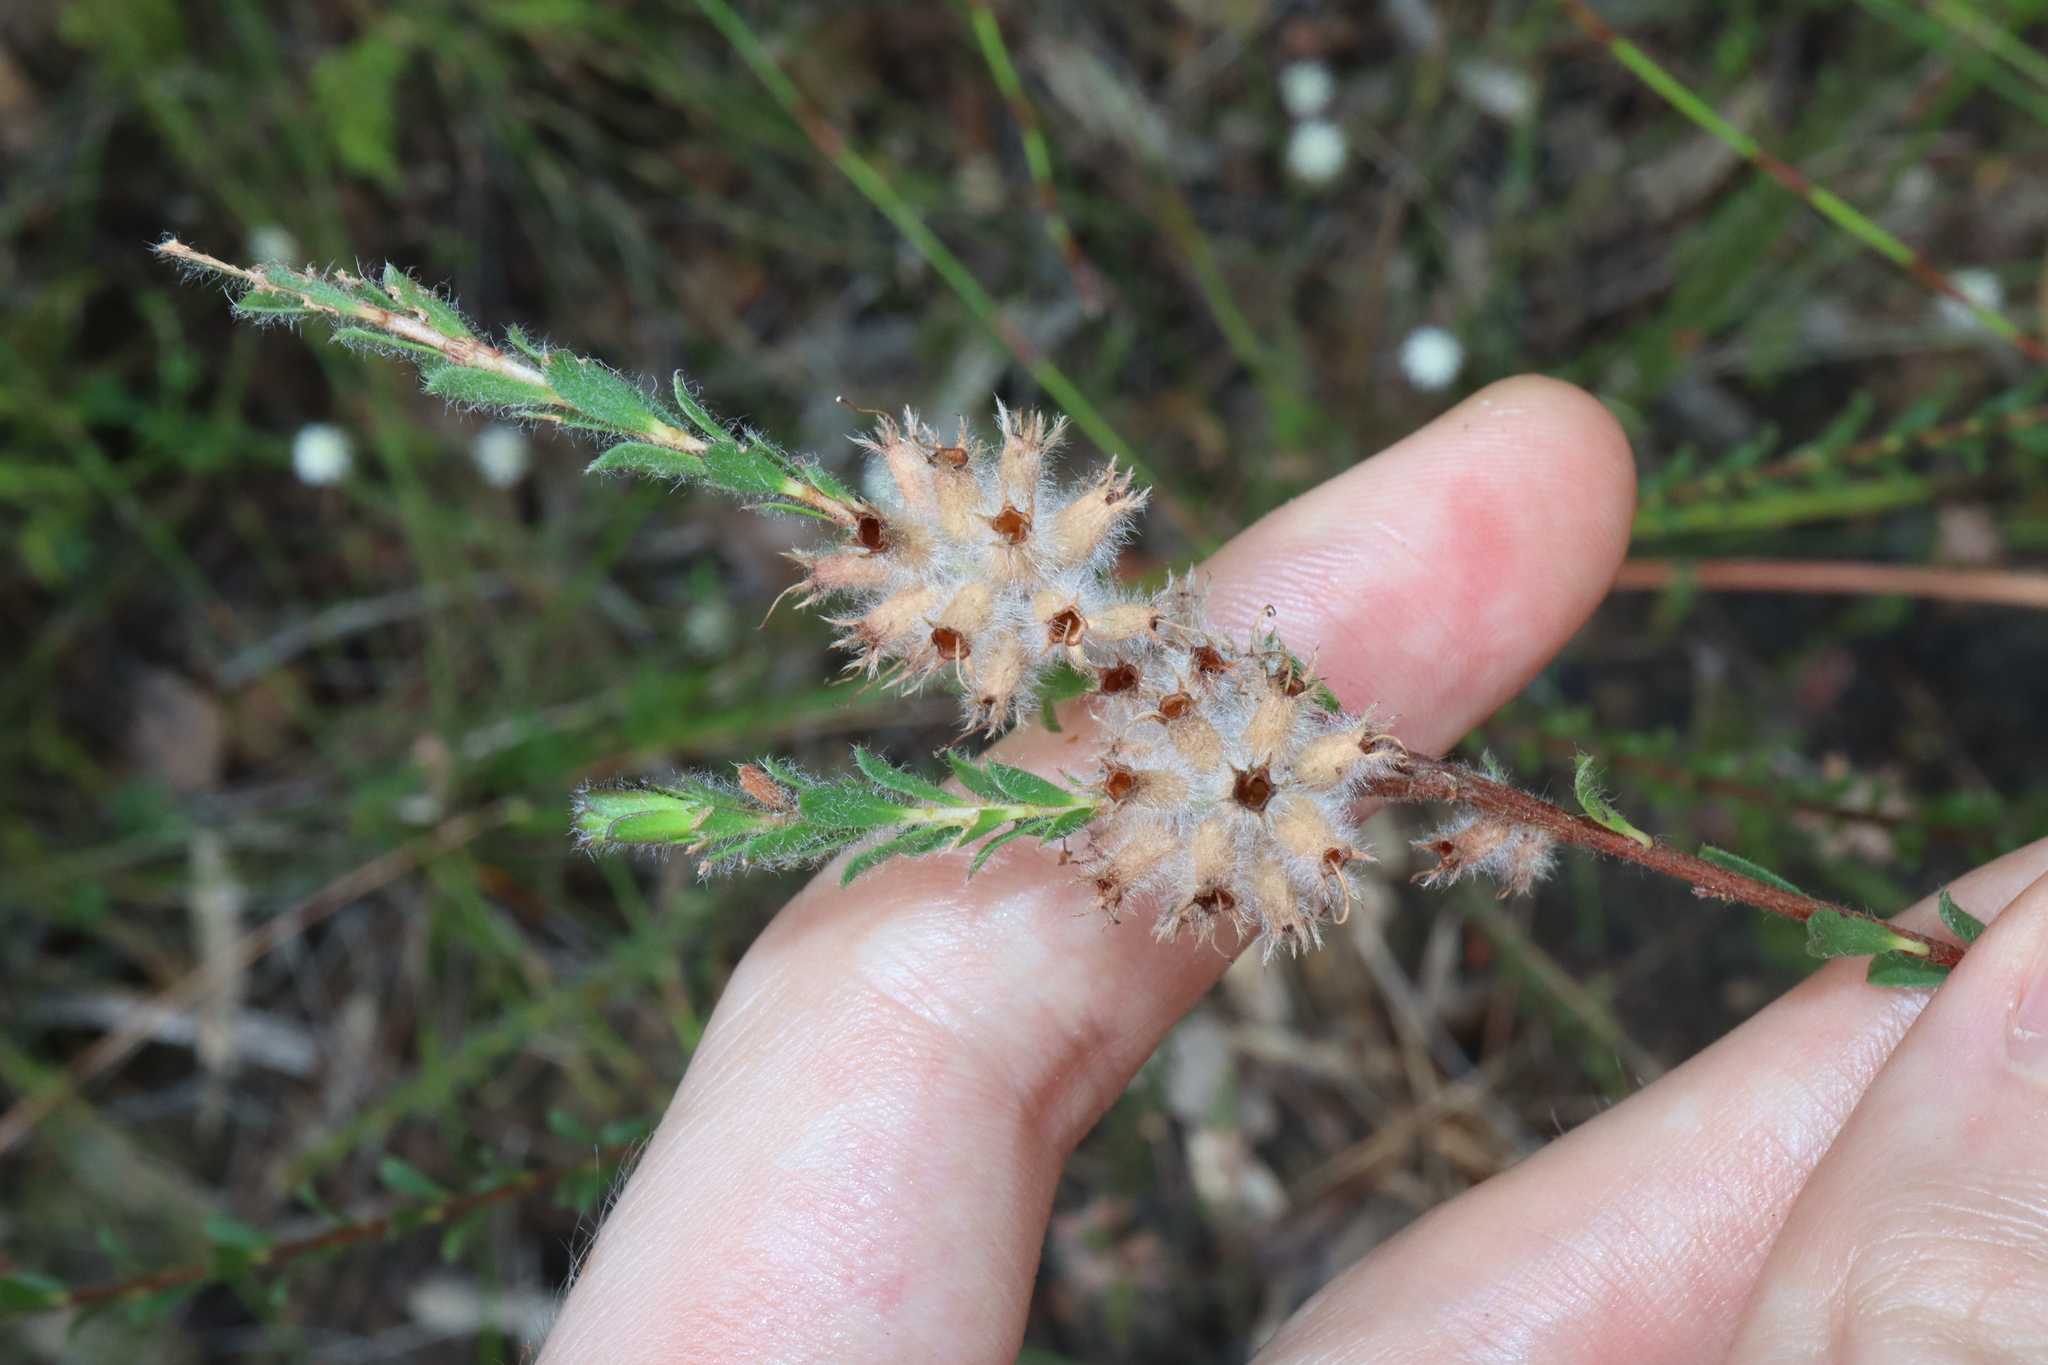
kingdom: Plantae
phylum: Tracheophyta
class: Magnoliopsida
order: Myrtales
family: Myrtaceae
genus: Kunzea
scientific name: Kunzea capitata
